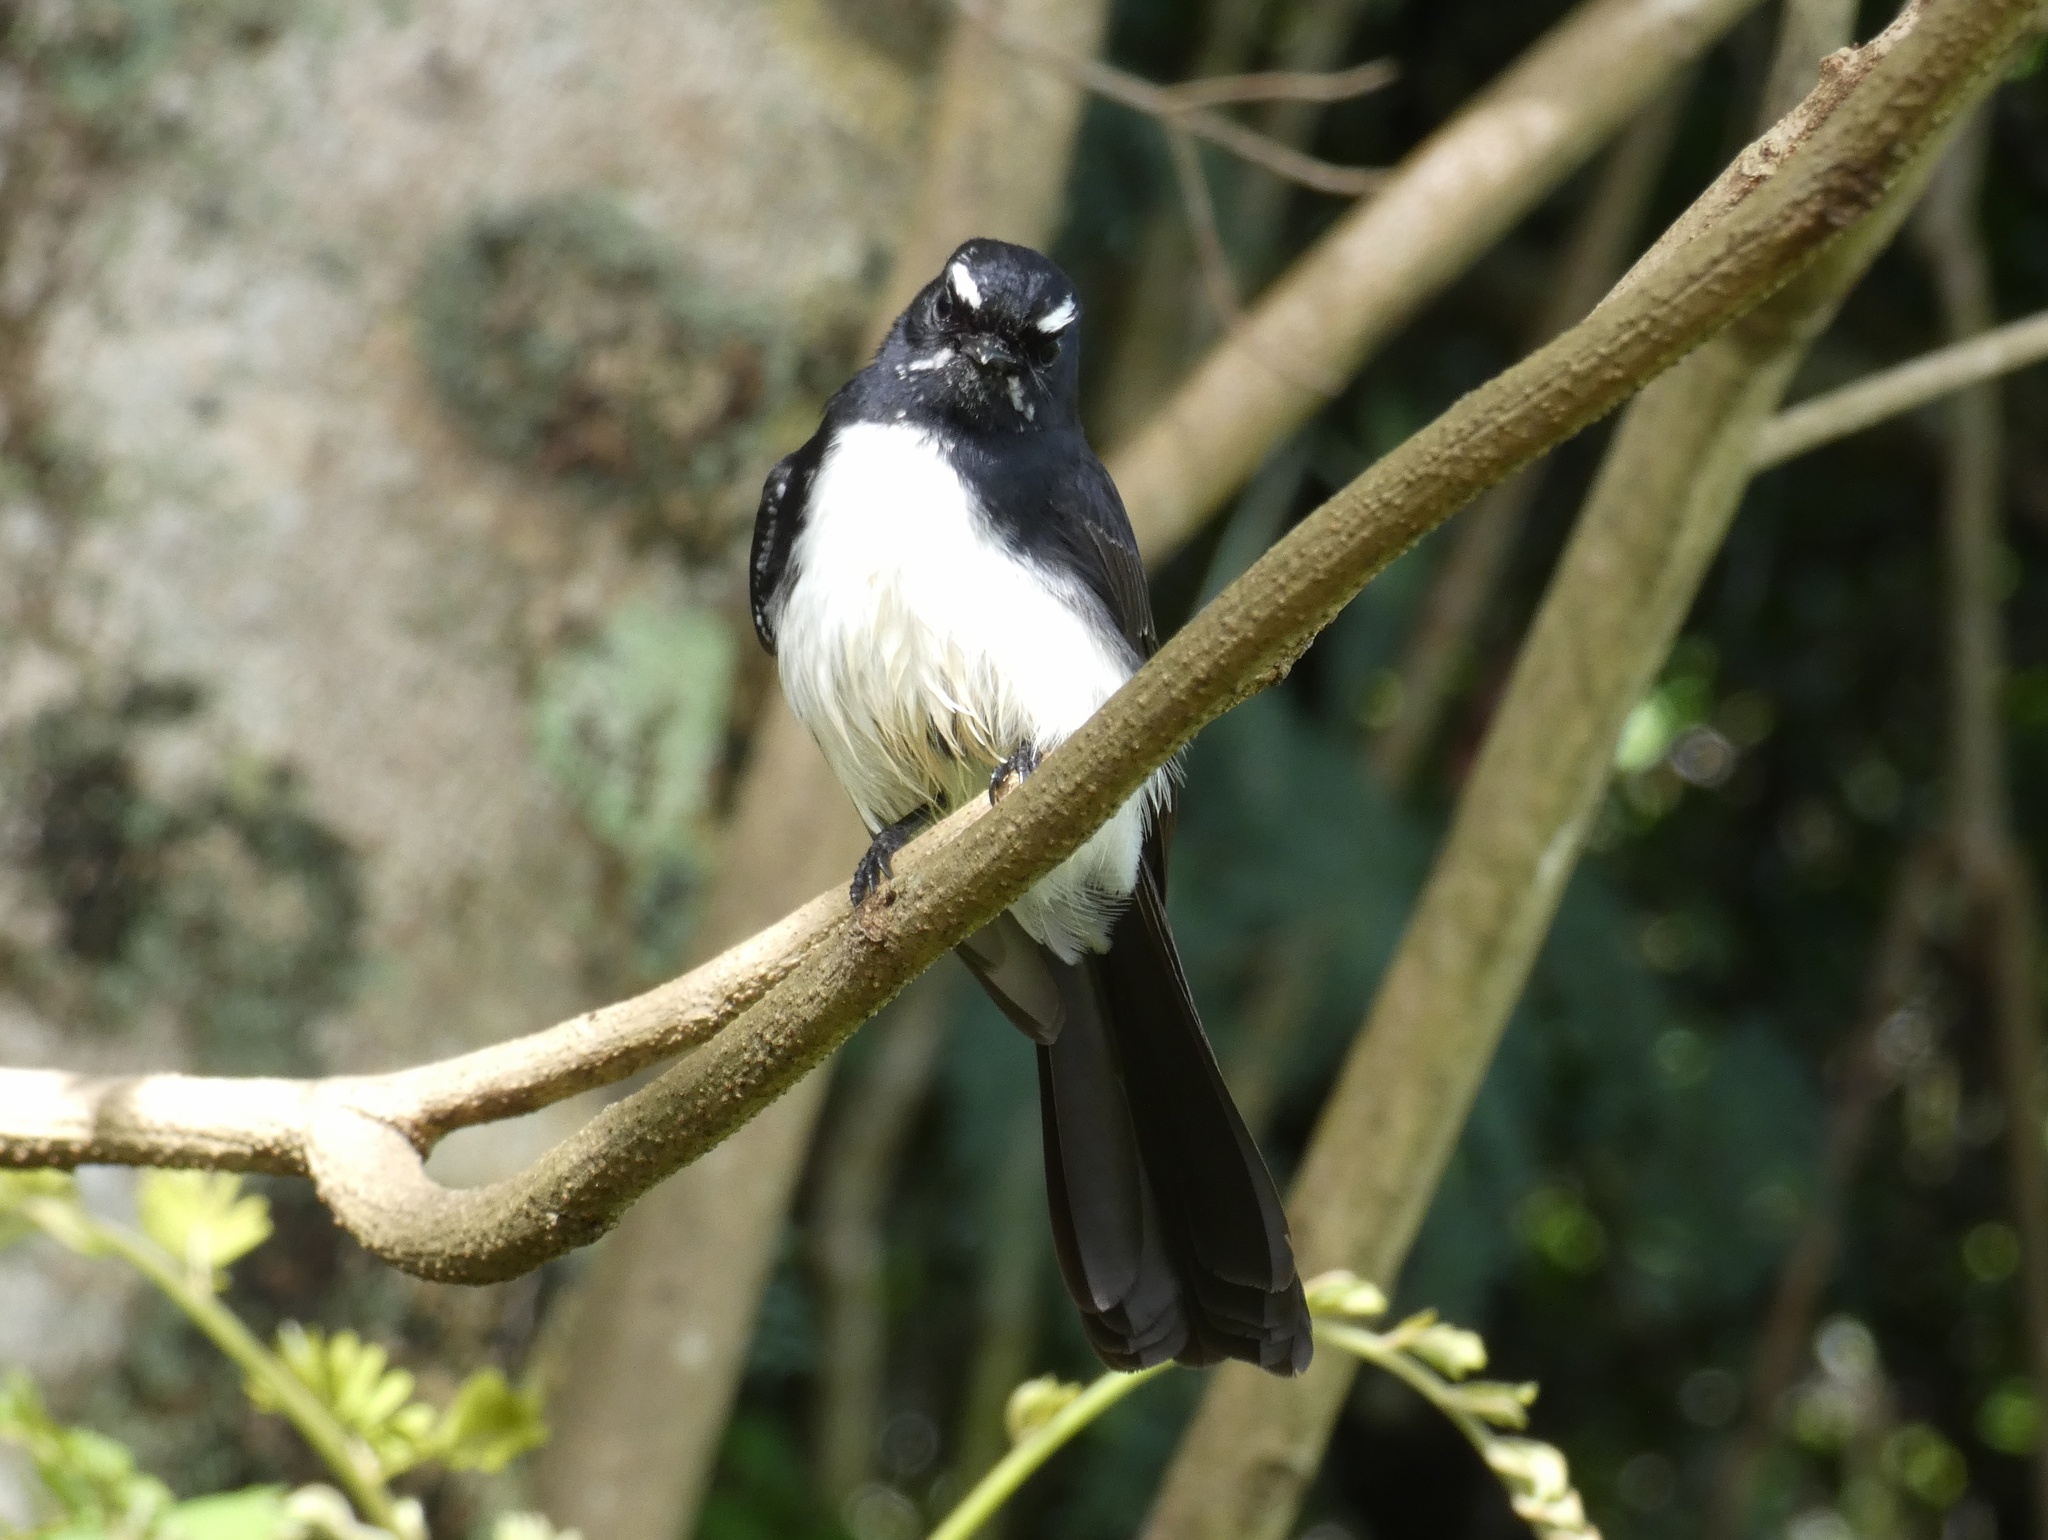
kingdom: Animalia
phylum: Chordata
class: Aves
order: Passeriformes
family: Rhipiduridae
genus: Rhipidura
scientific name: Rhipidura leucophrys
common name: Willie wagtail
